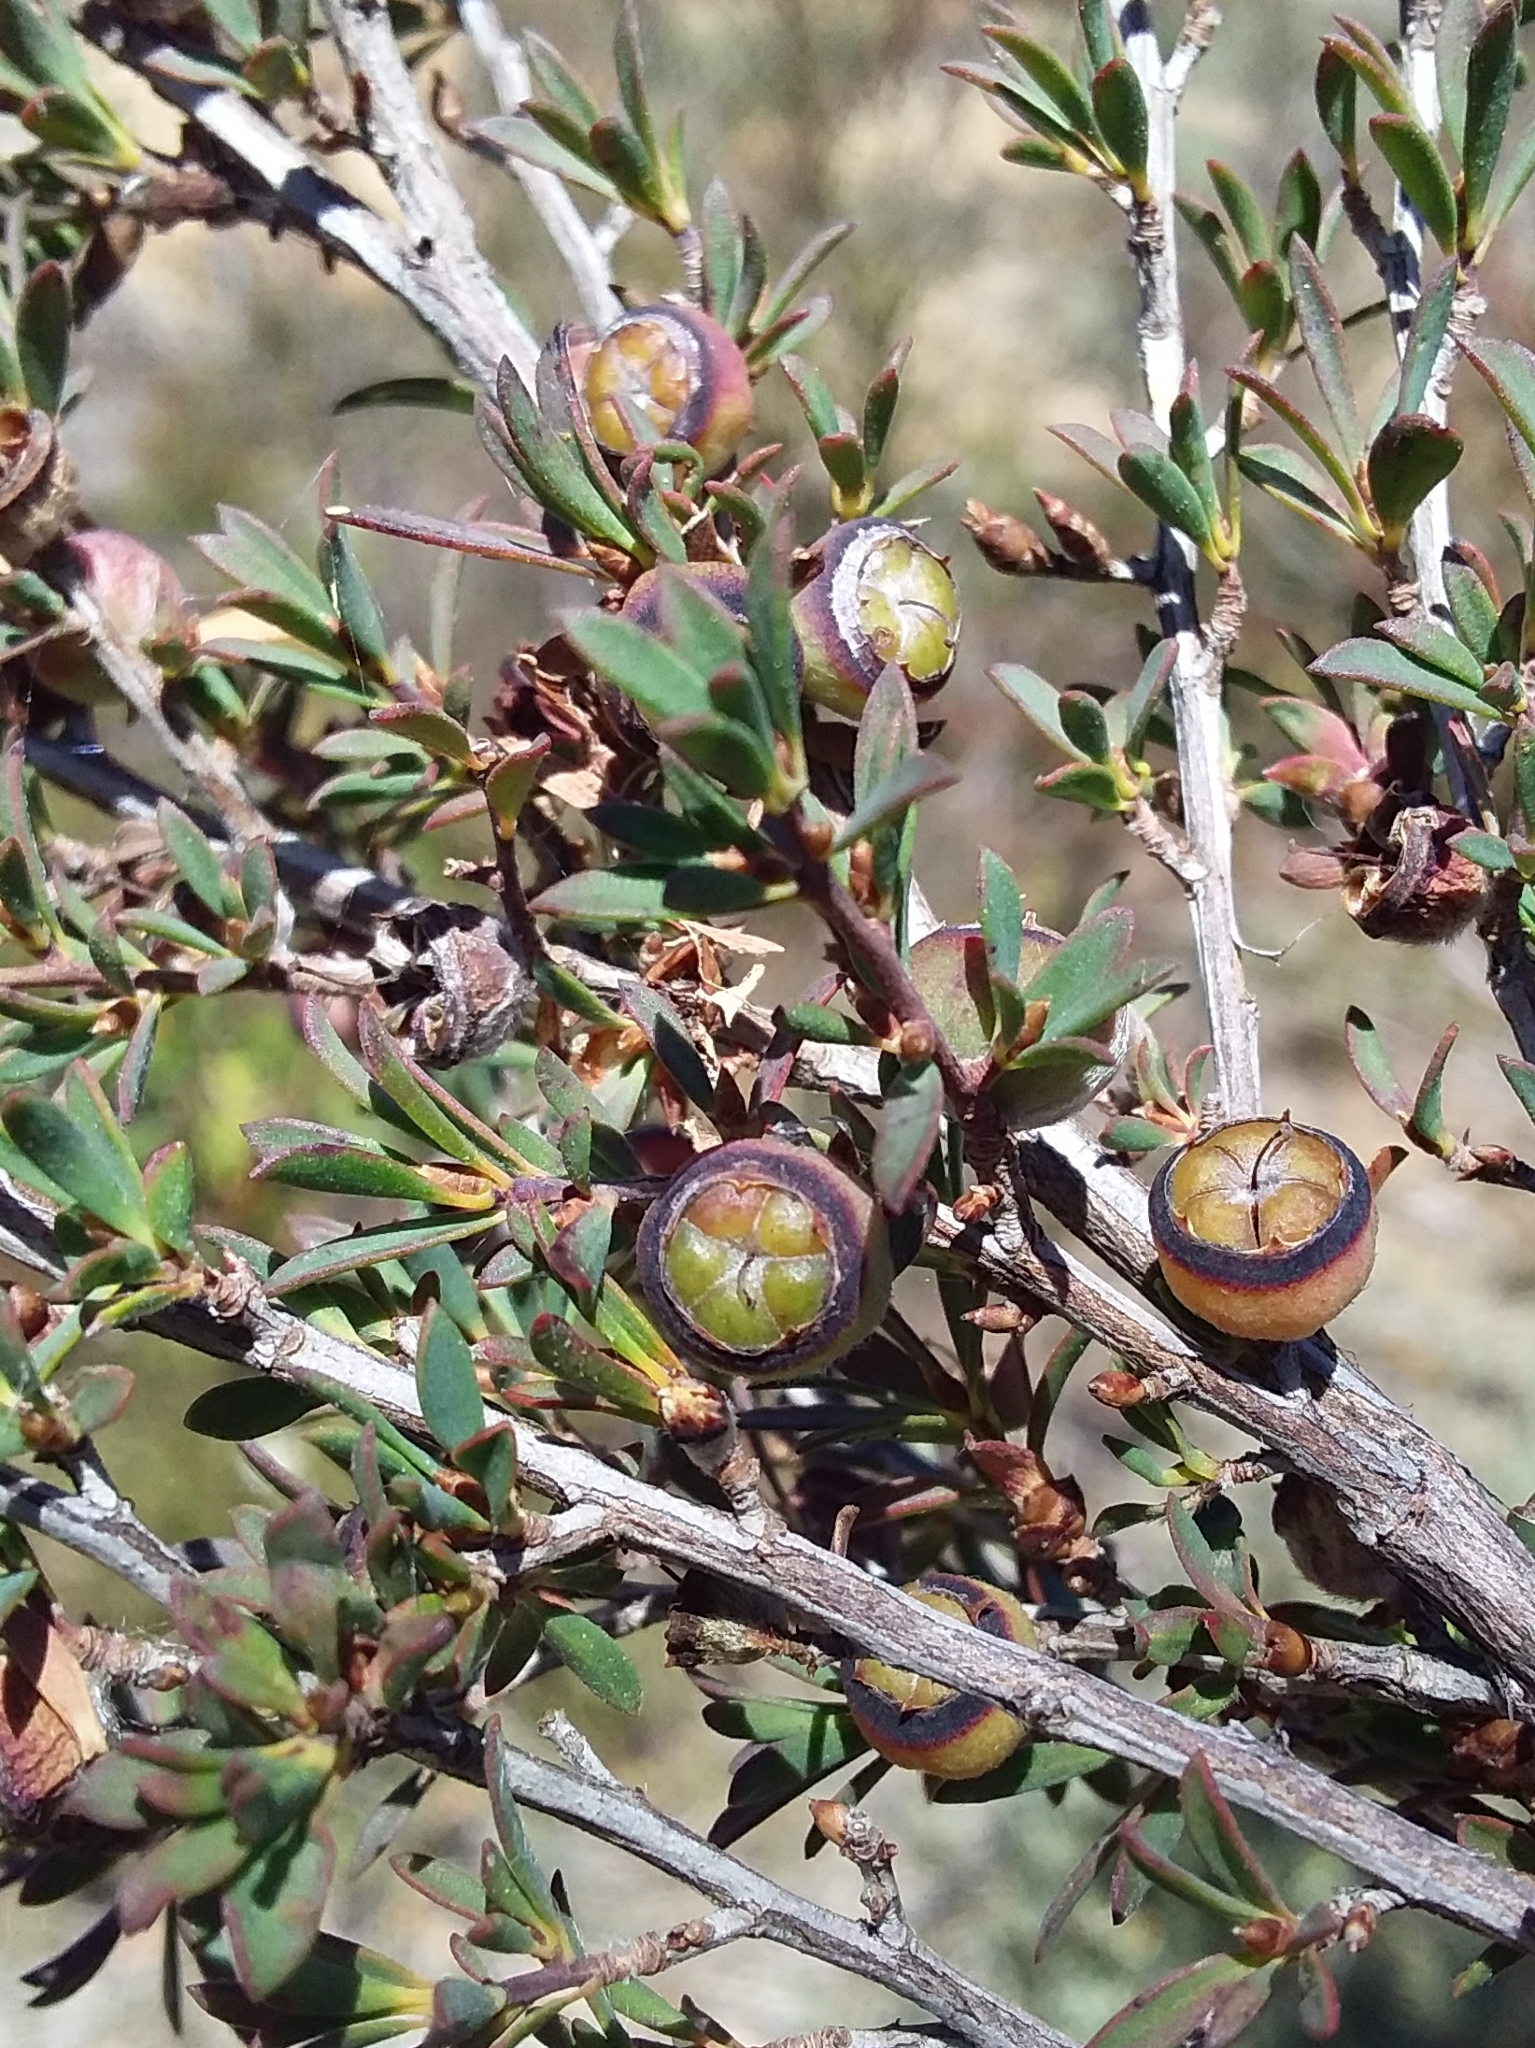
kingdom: Plantae
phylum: Tracheophyta
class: Magnoliopsida
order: Myrtales
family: Myrtaceae
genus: Leptospermum
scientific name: Leptospermum myrsinoides
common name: Heath teatree
